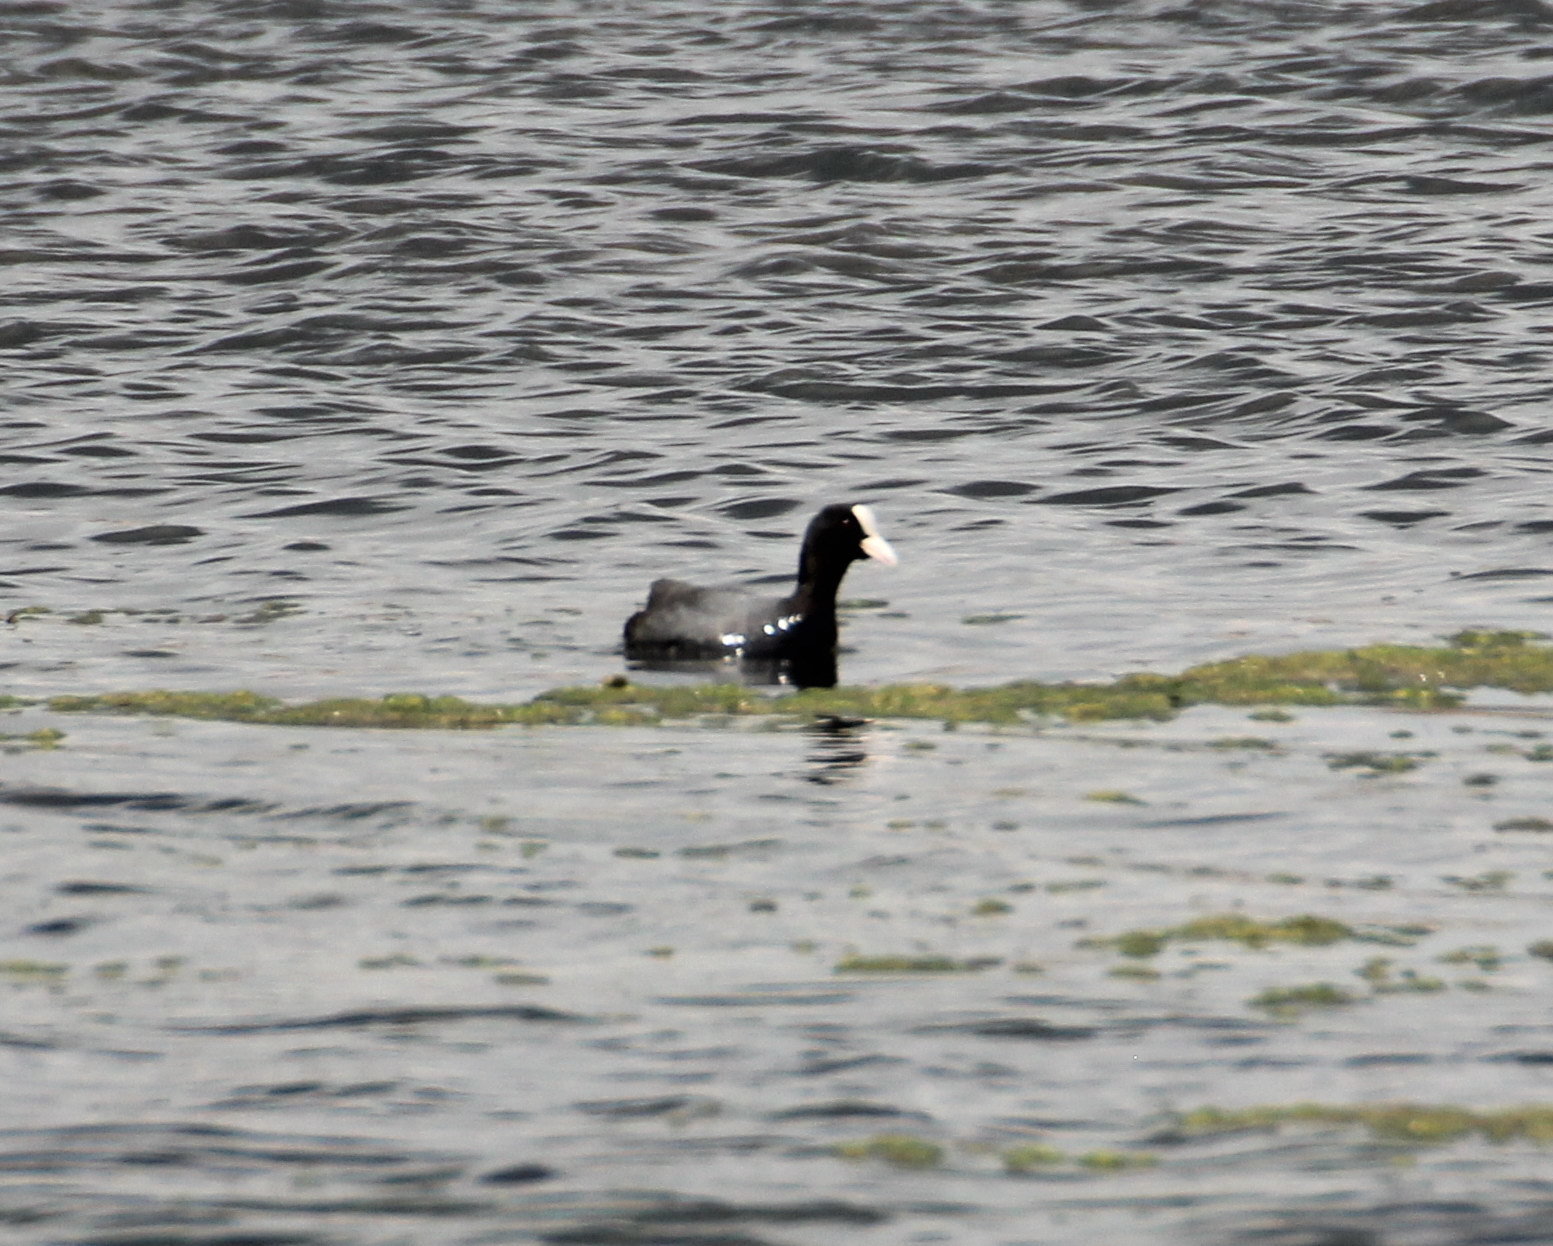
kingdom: Animalia
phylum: Chordata
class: Aves
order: Gruiformes
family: Rallidae
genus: Fulica
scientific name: Fulica atra
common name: Eurasian coot
